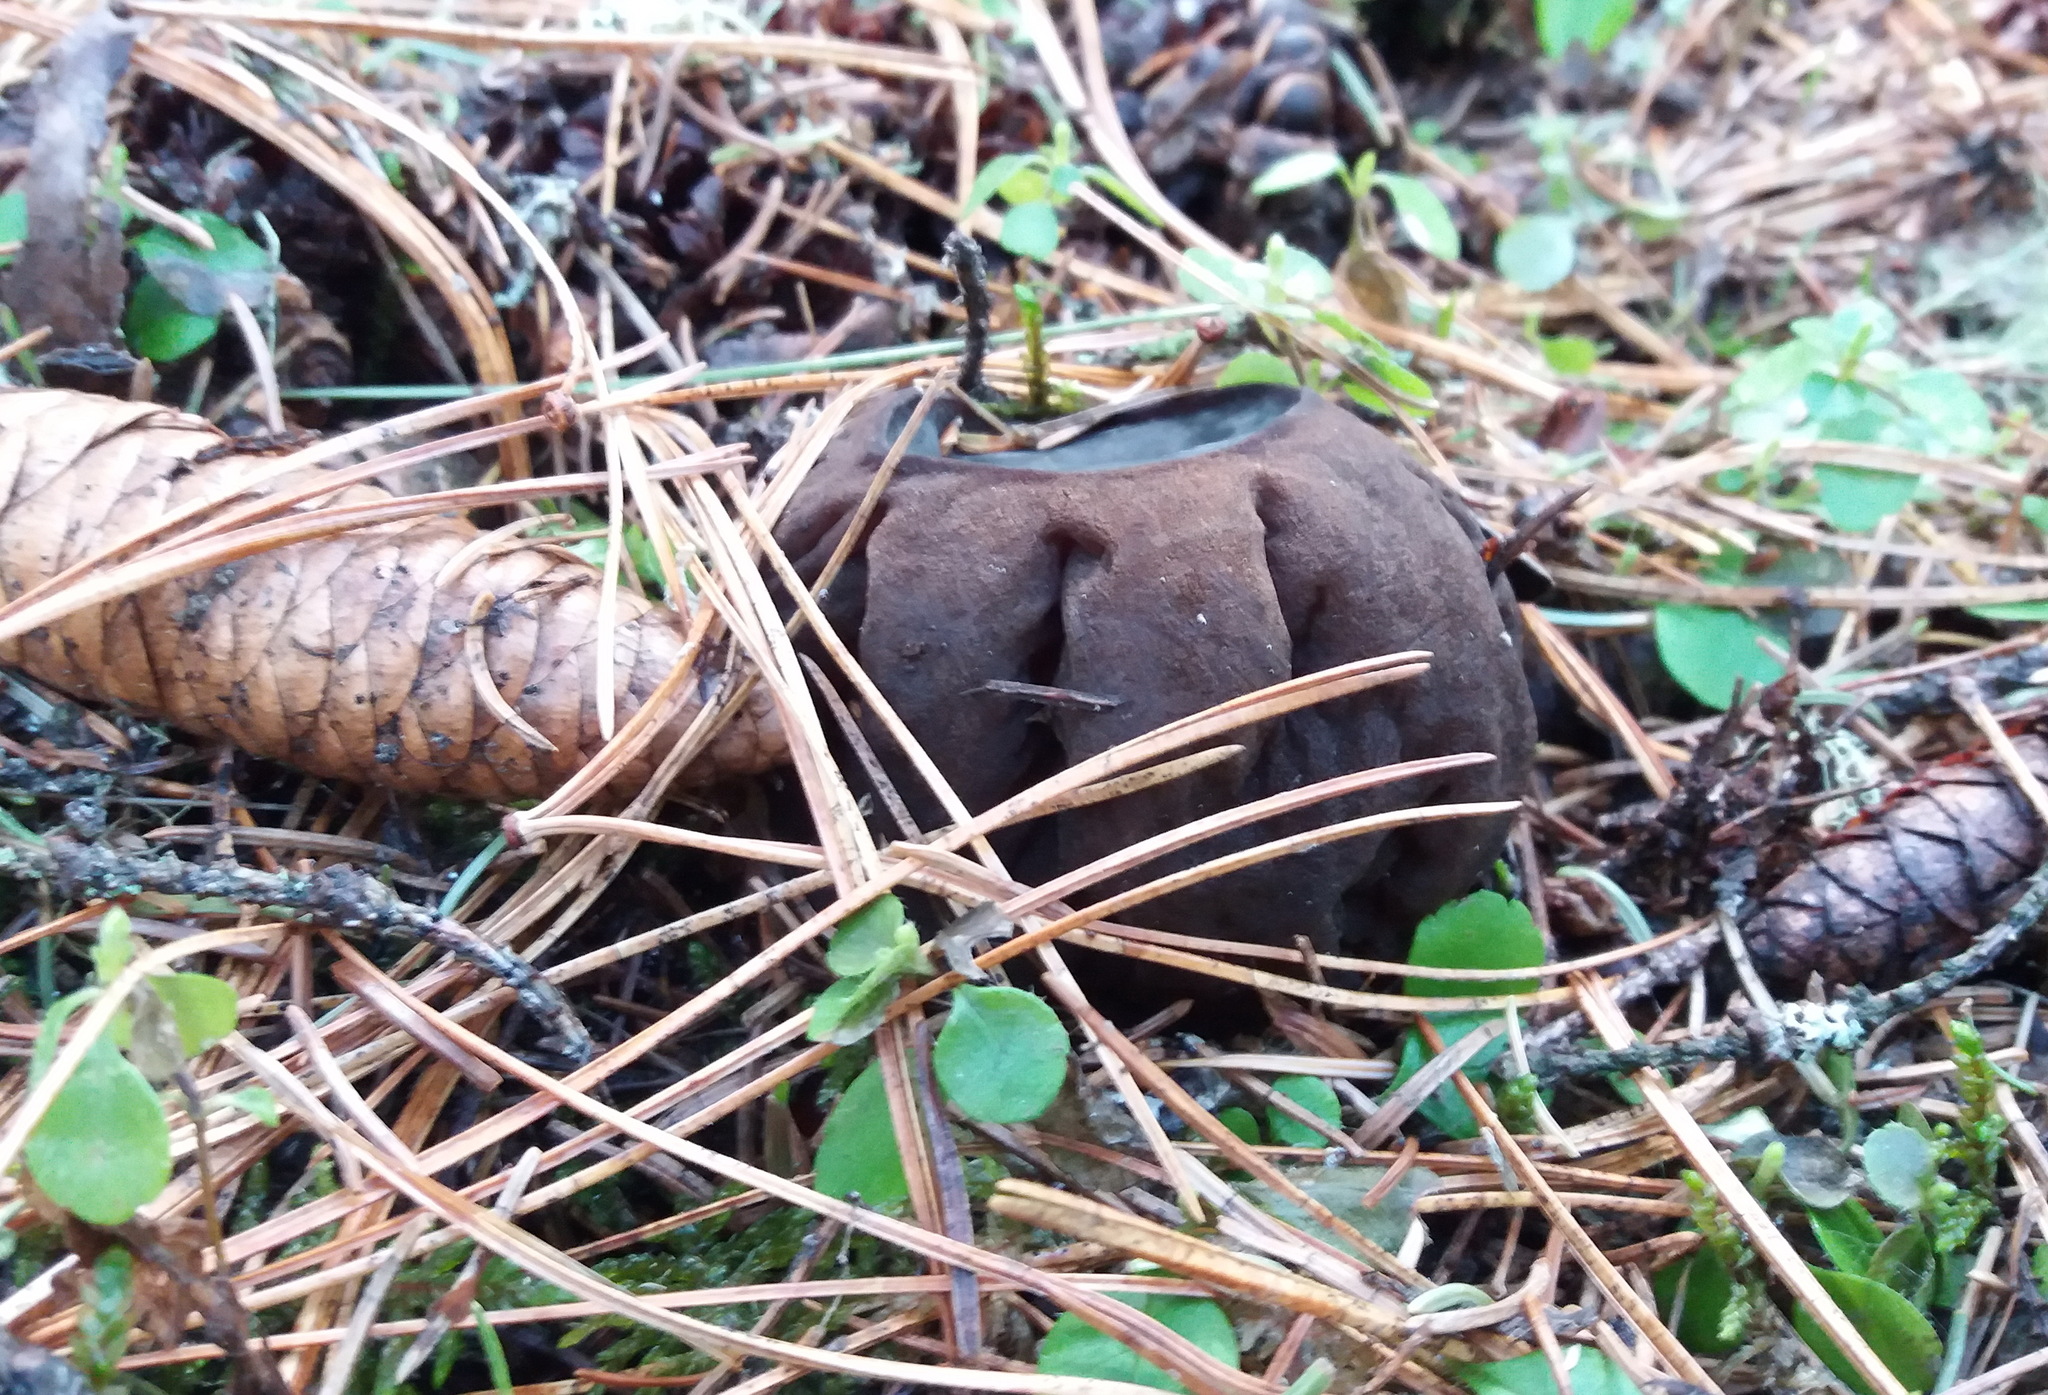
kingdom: Fungi
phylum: Ascomycota
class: Pezizomycetes
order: Pezizales
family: Sarcosomataceae
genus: Sarcosoma
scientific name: Sarcosoma globosum
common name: Charred-pancake cup
